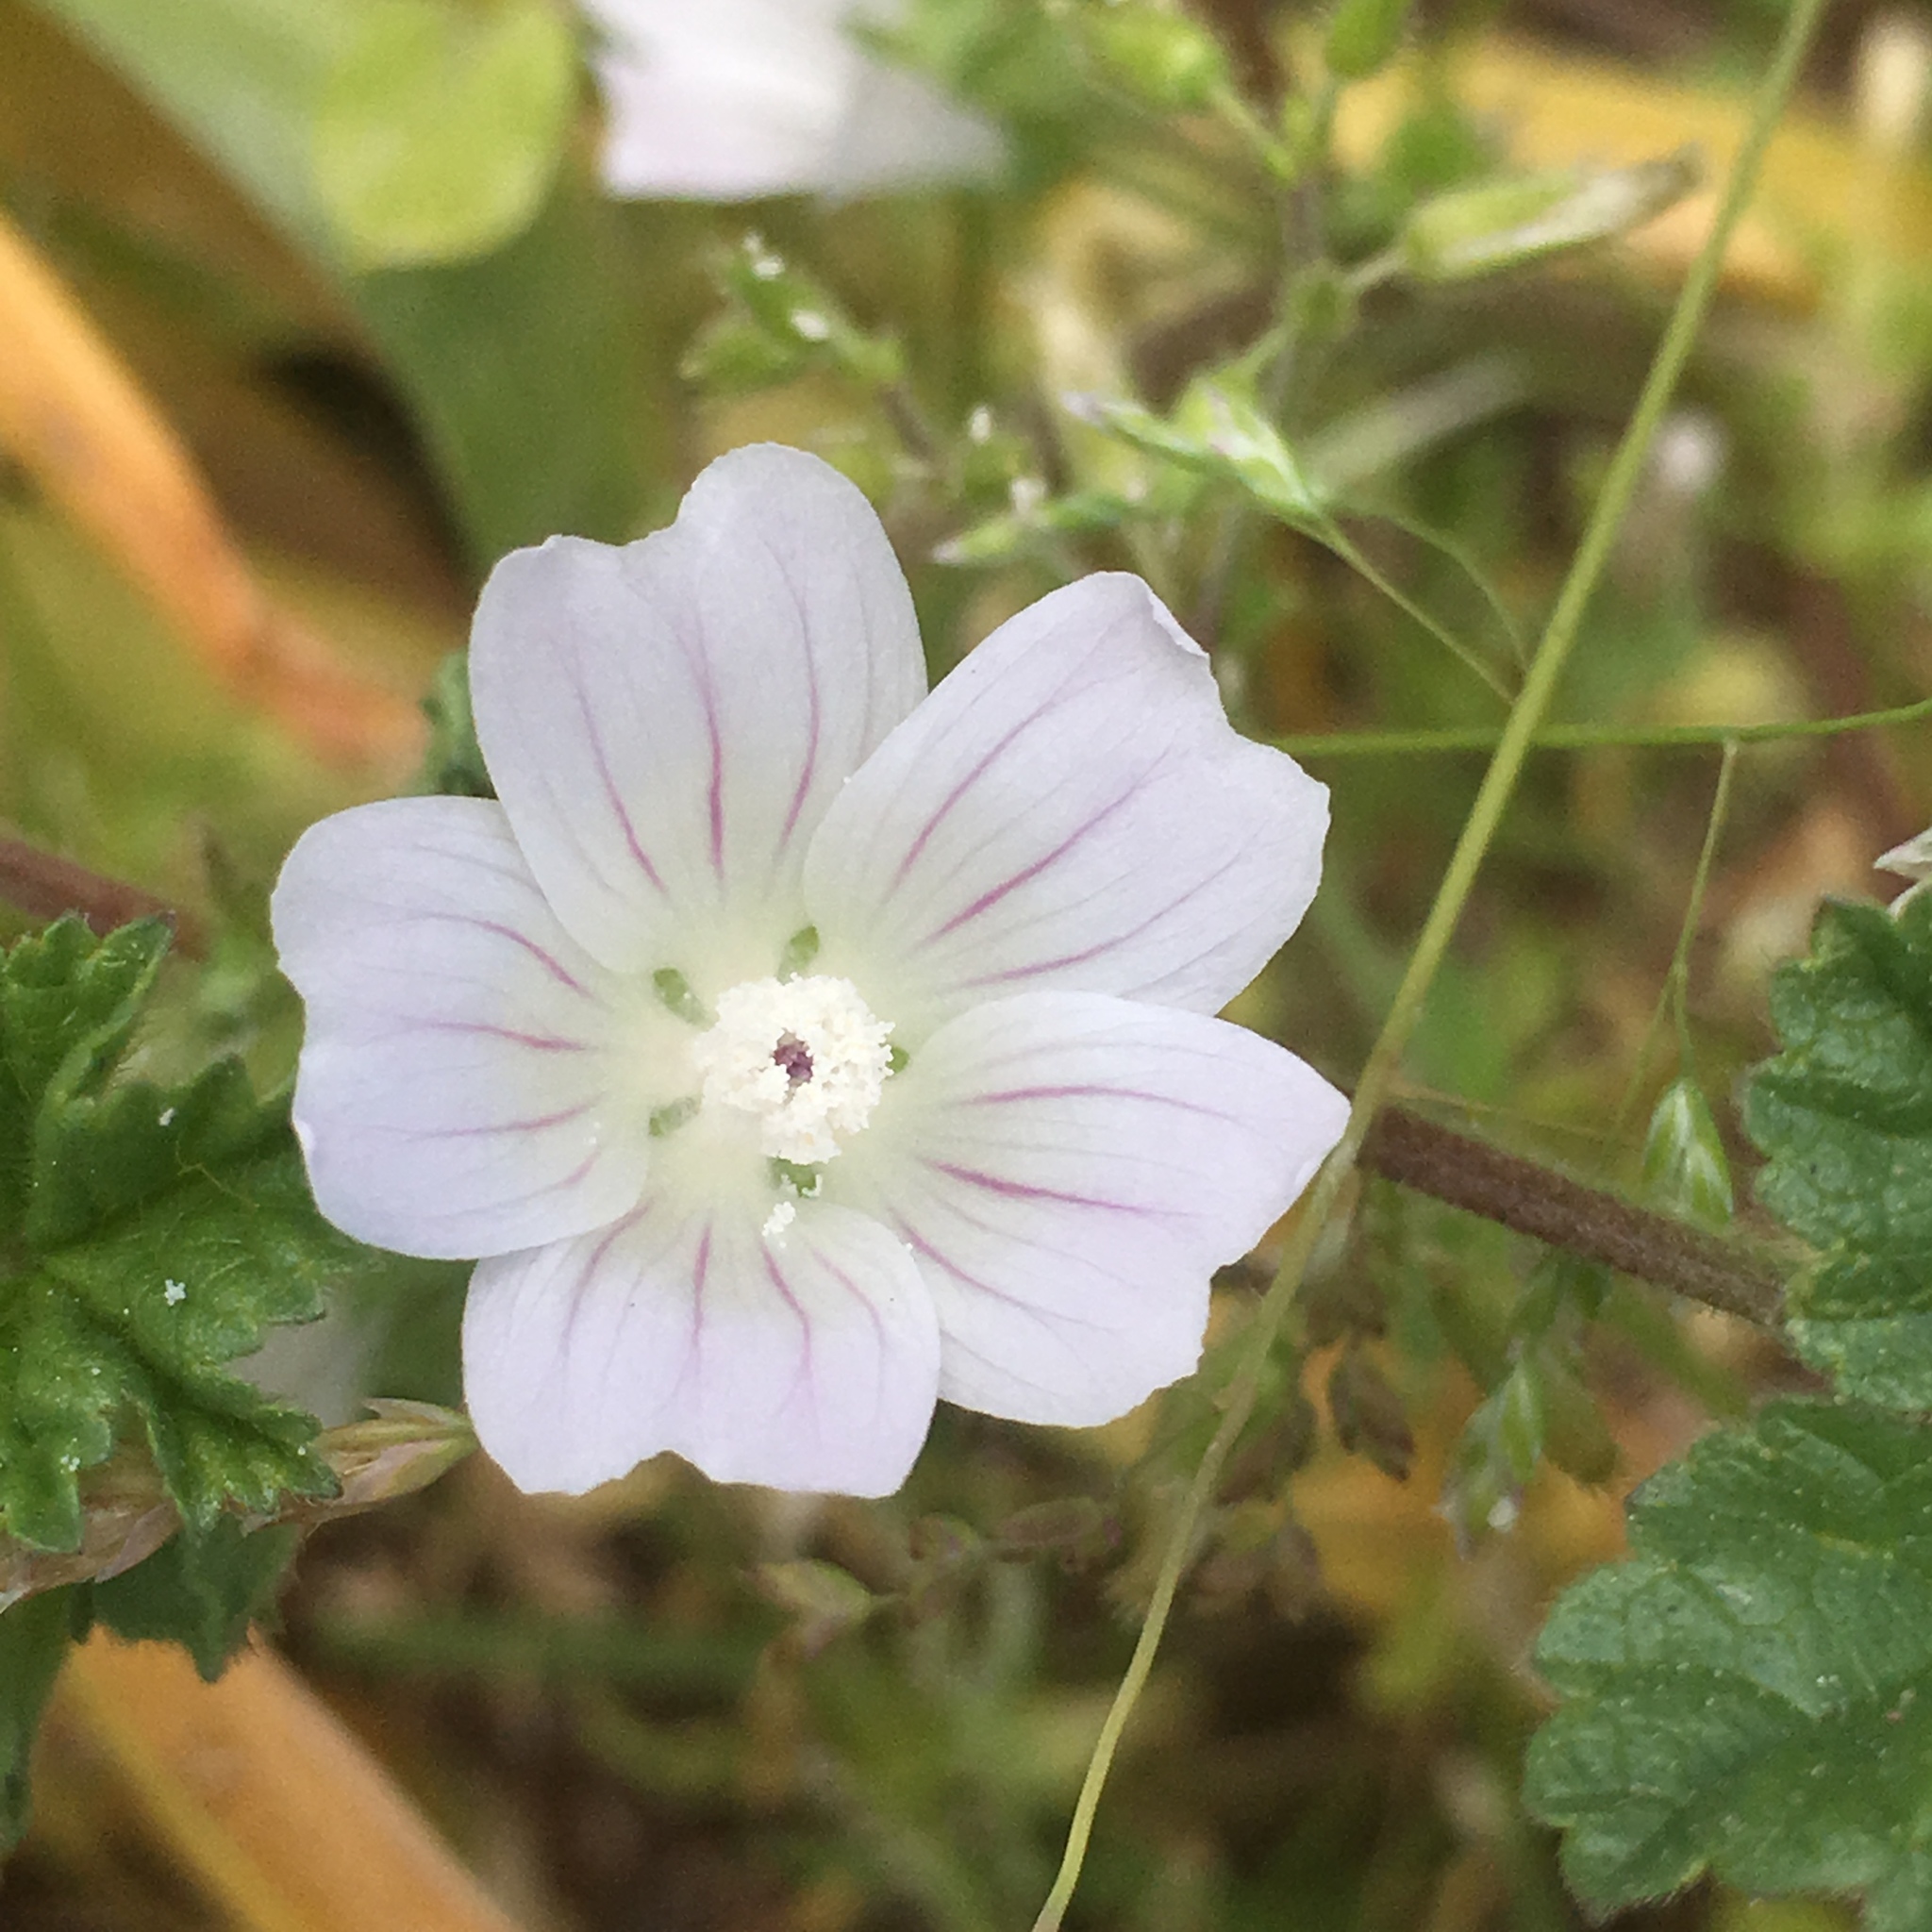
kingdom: Plantae
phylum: Tracheophyta
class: Magnoliopsida
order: Malvales
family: Malvaceae
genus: Malva
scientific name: Malva neglecta
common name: Common mallow
